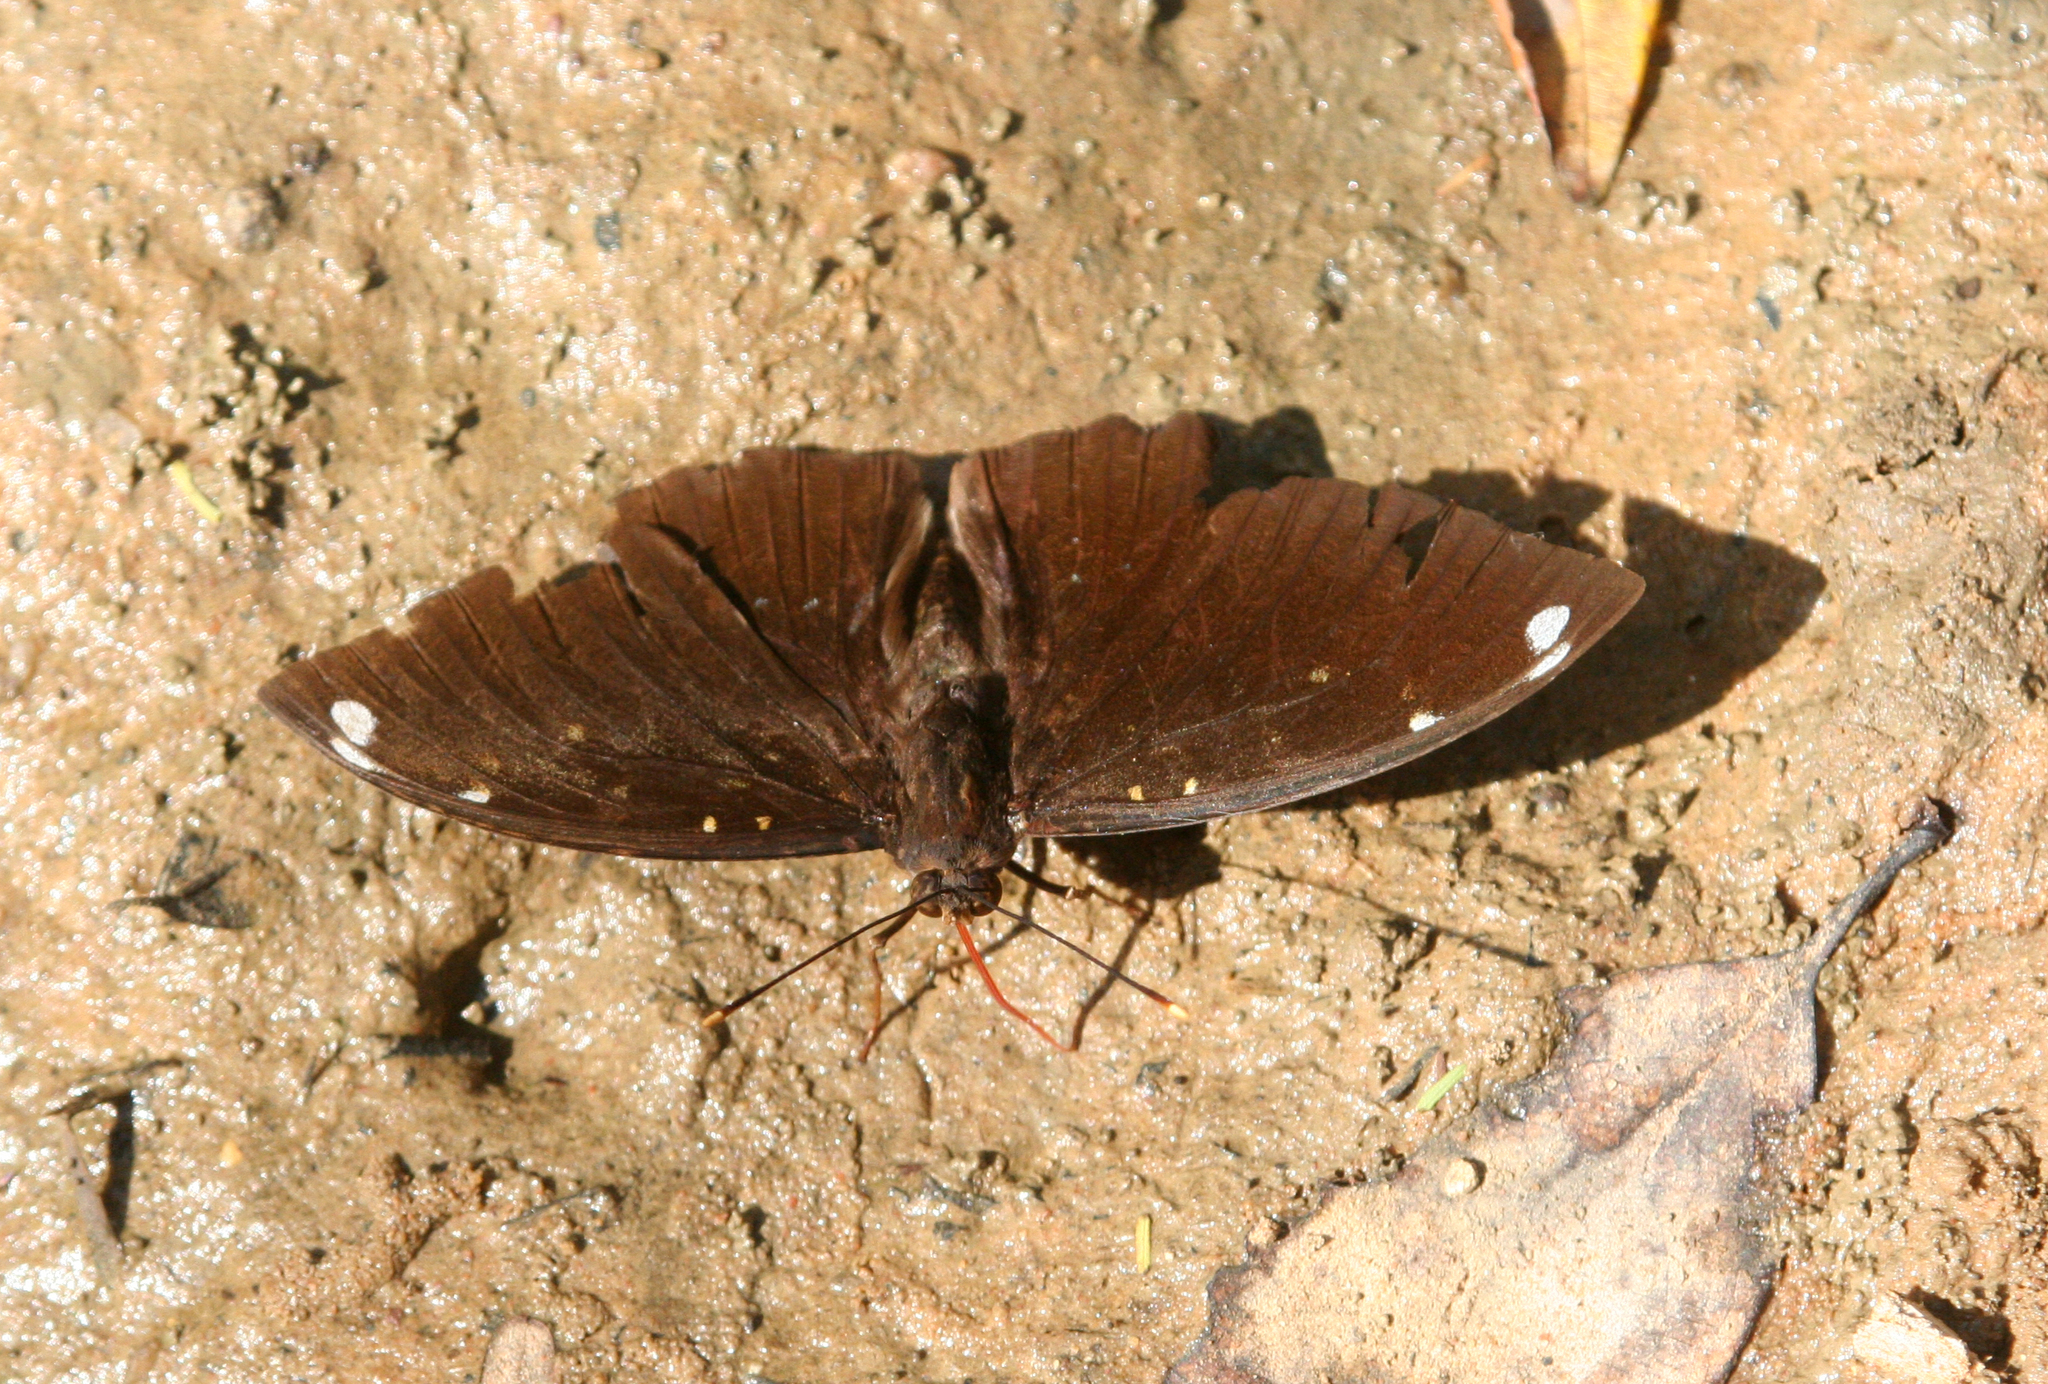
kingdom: Animalia
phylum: Arthropoda
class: Insecta
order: Lepidoptera
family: Nymphalidae
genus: Lexias
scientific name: Lexias
